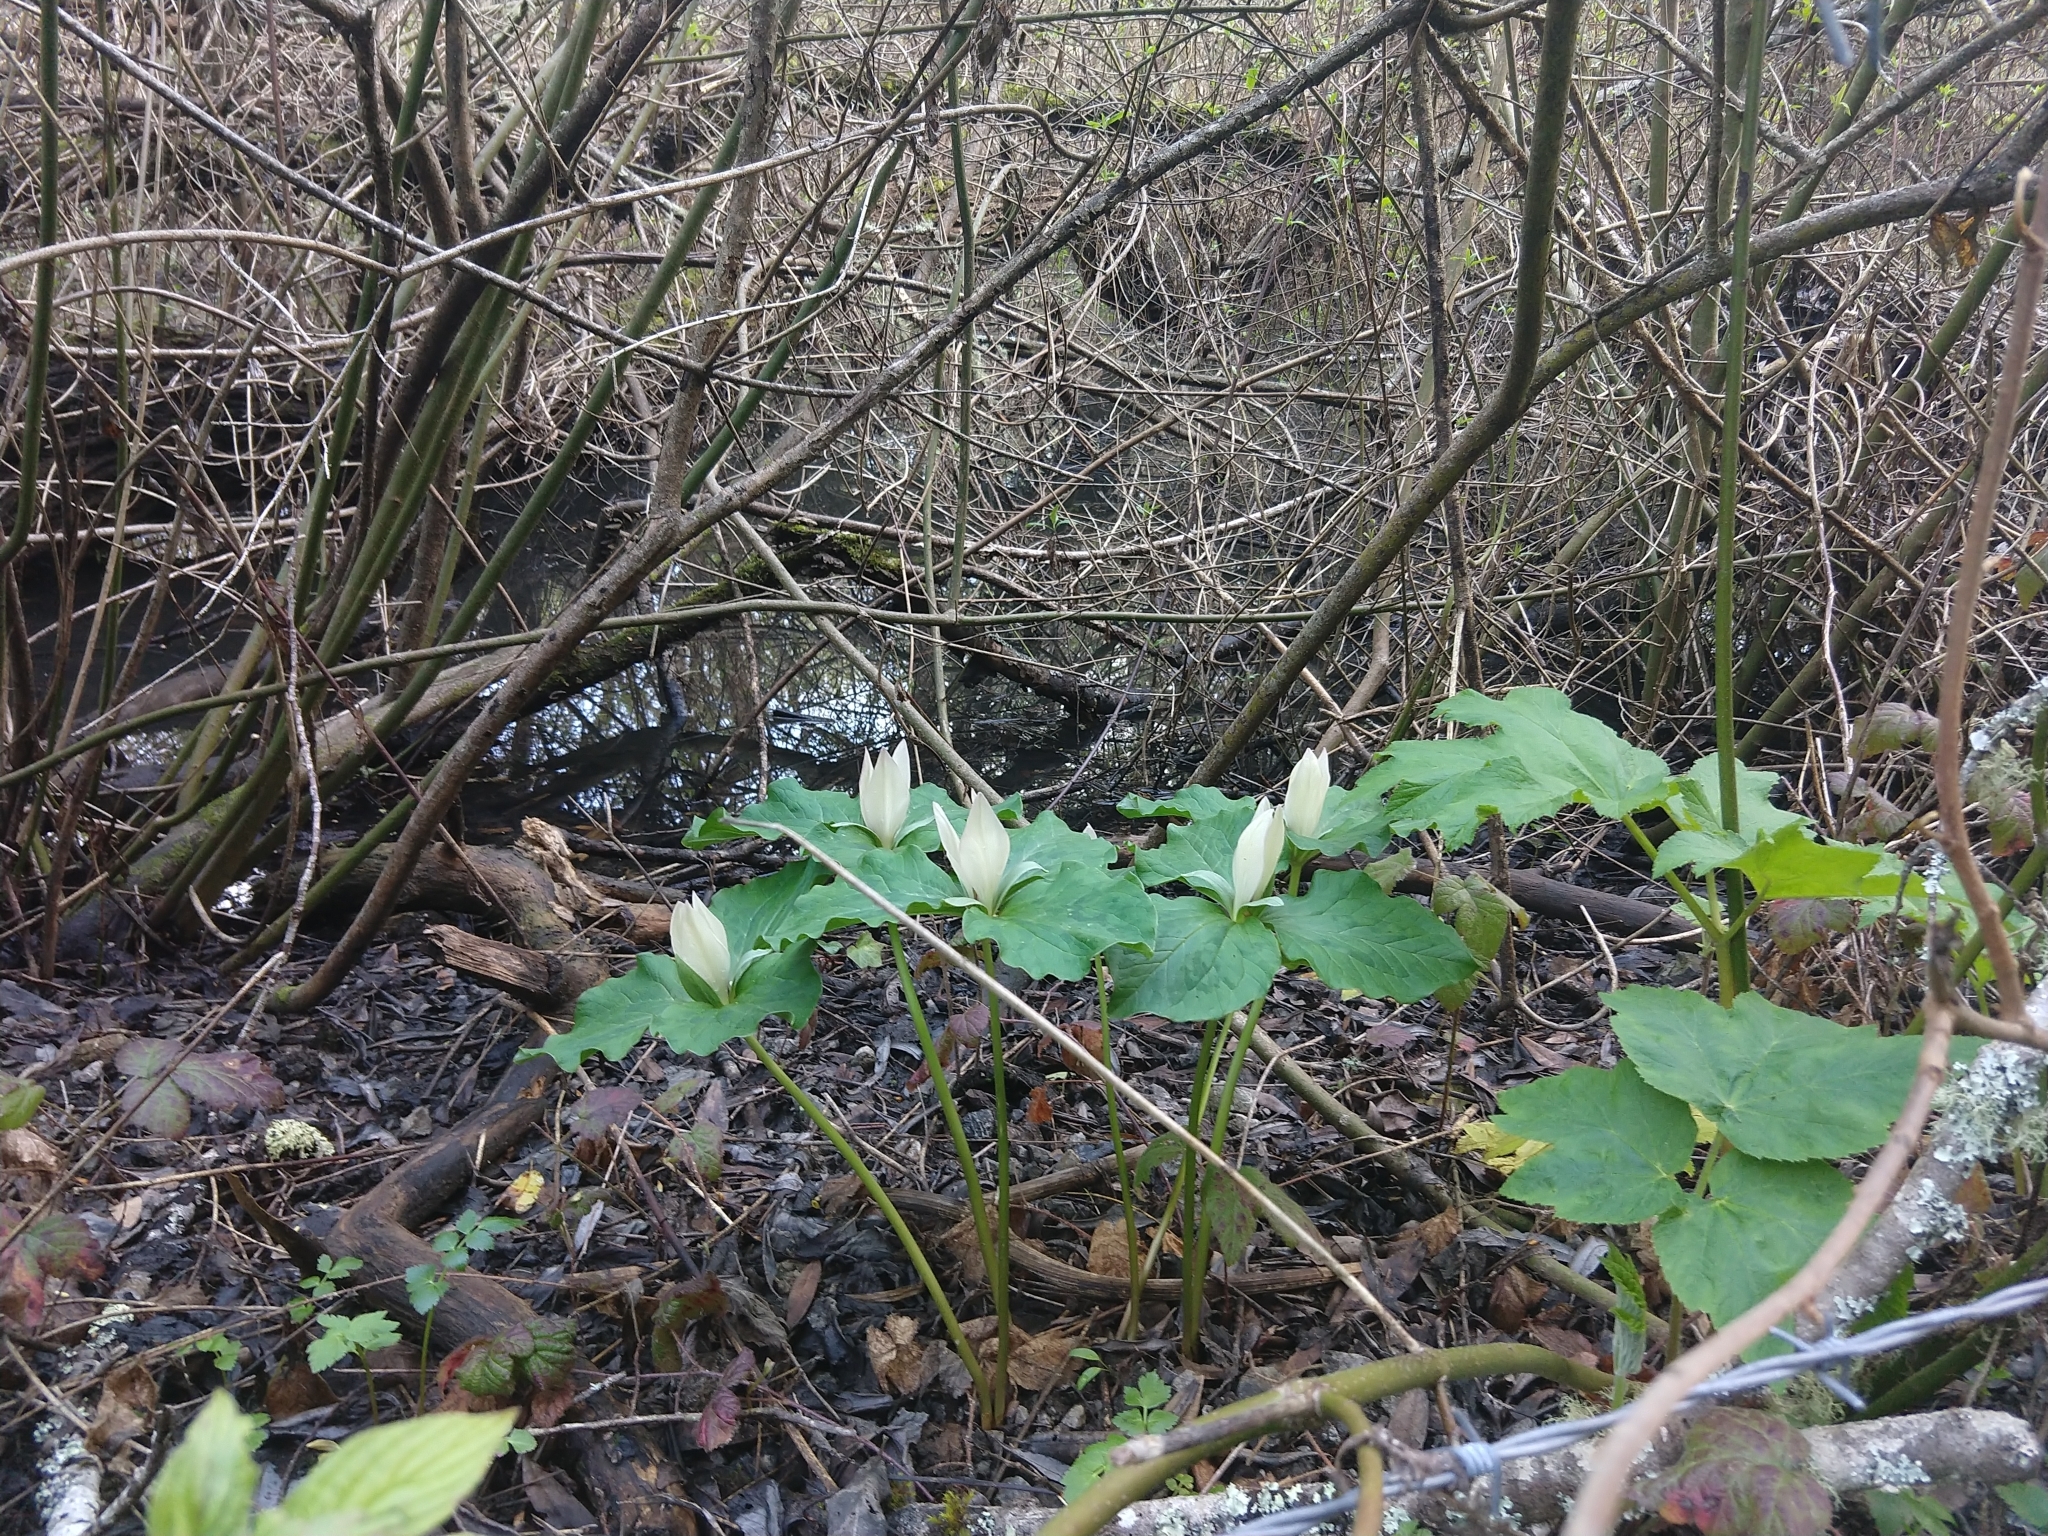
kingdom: Plantae
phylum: Tracheophyta
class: Liliopsida
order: Liliales
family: Melanthiaceae
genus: Trillium
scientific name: Trillium chloropetalum
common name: Giant trillium
